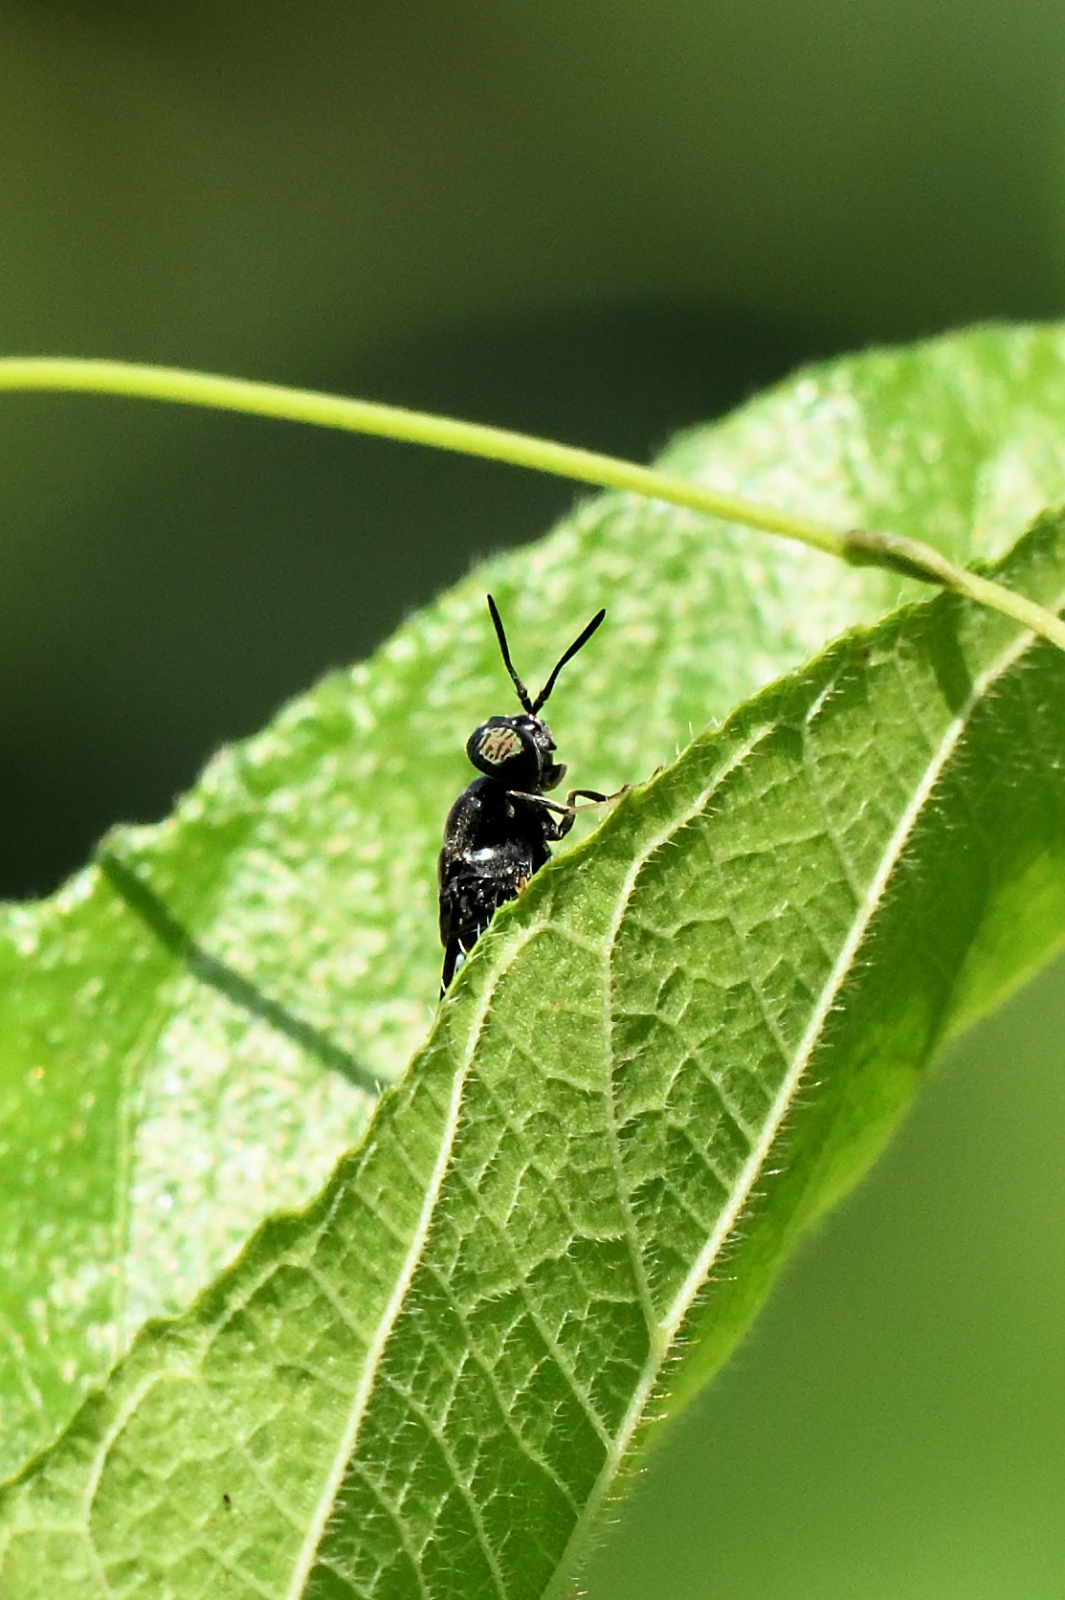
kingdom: Animalia
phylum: Arthropoda
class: Insecta
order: Diptera
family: Stratiomyidae
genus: Hermetia
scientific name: Hermetia illucens
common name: Black soldier fly
